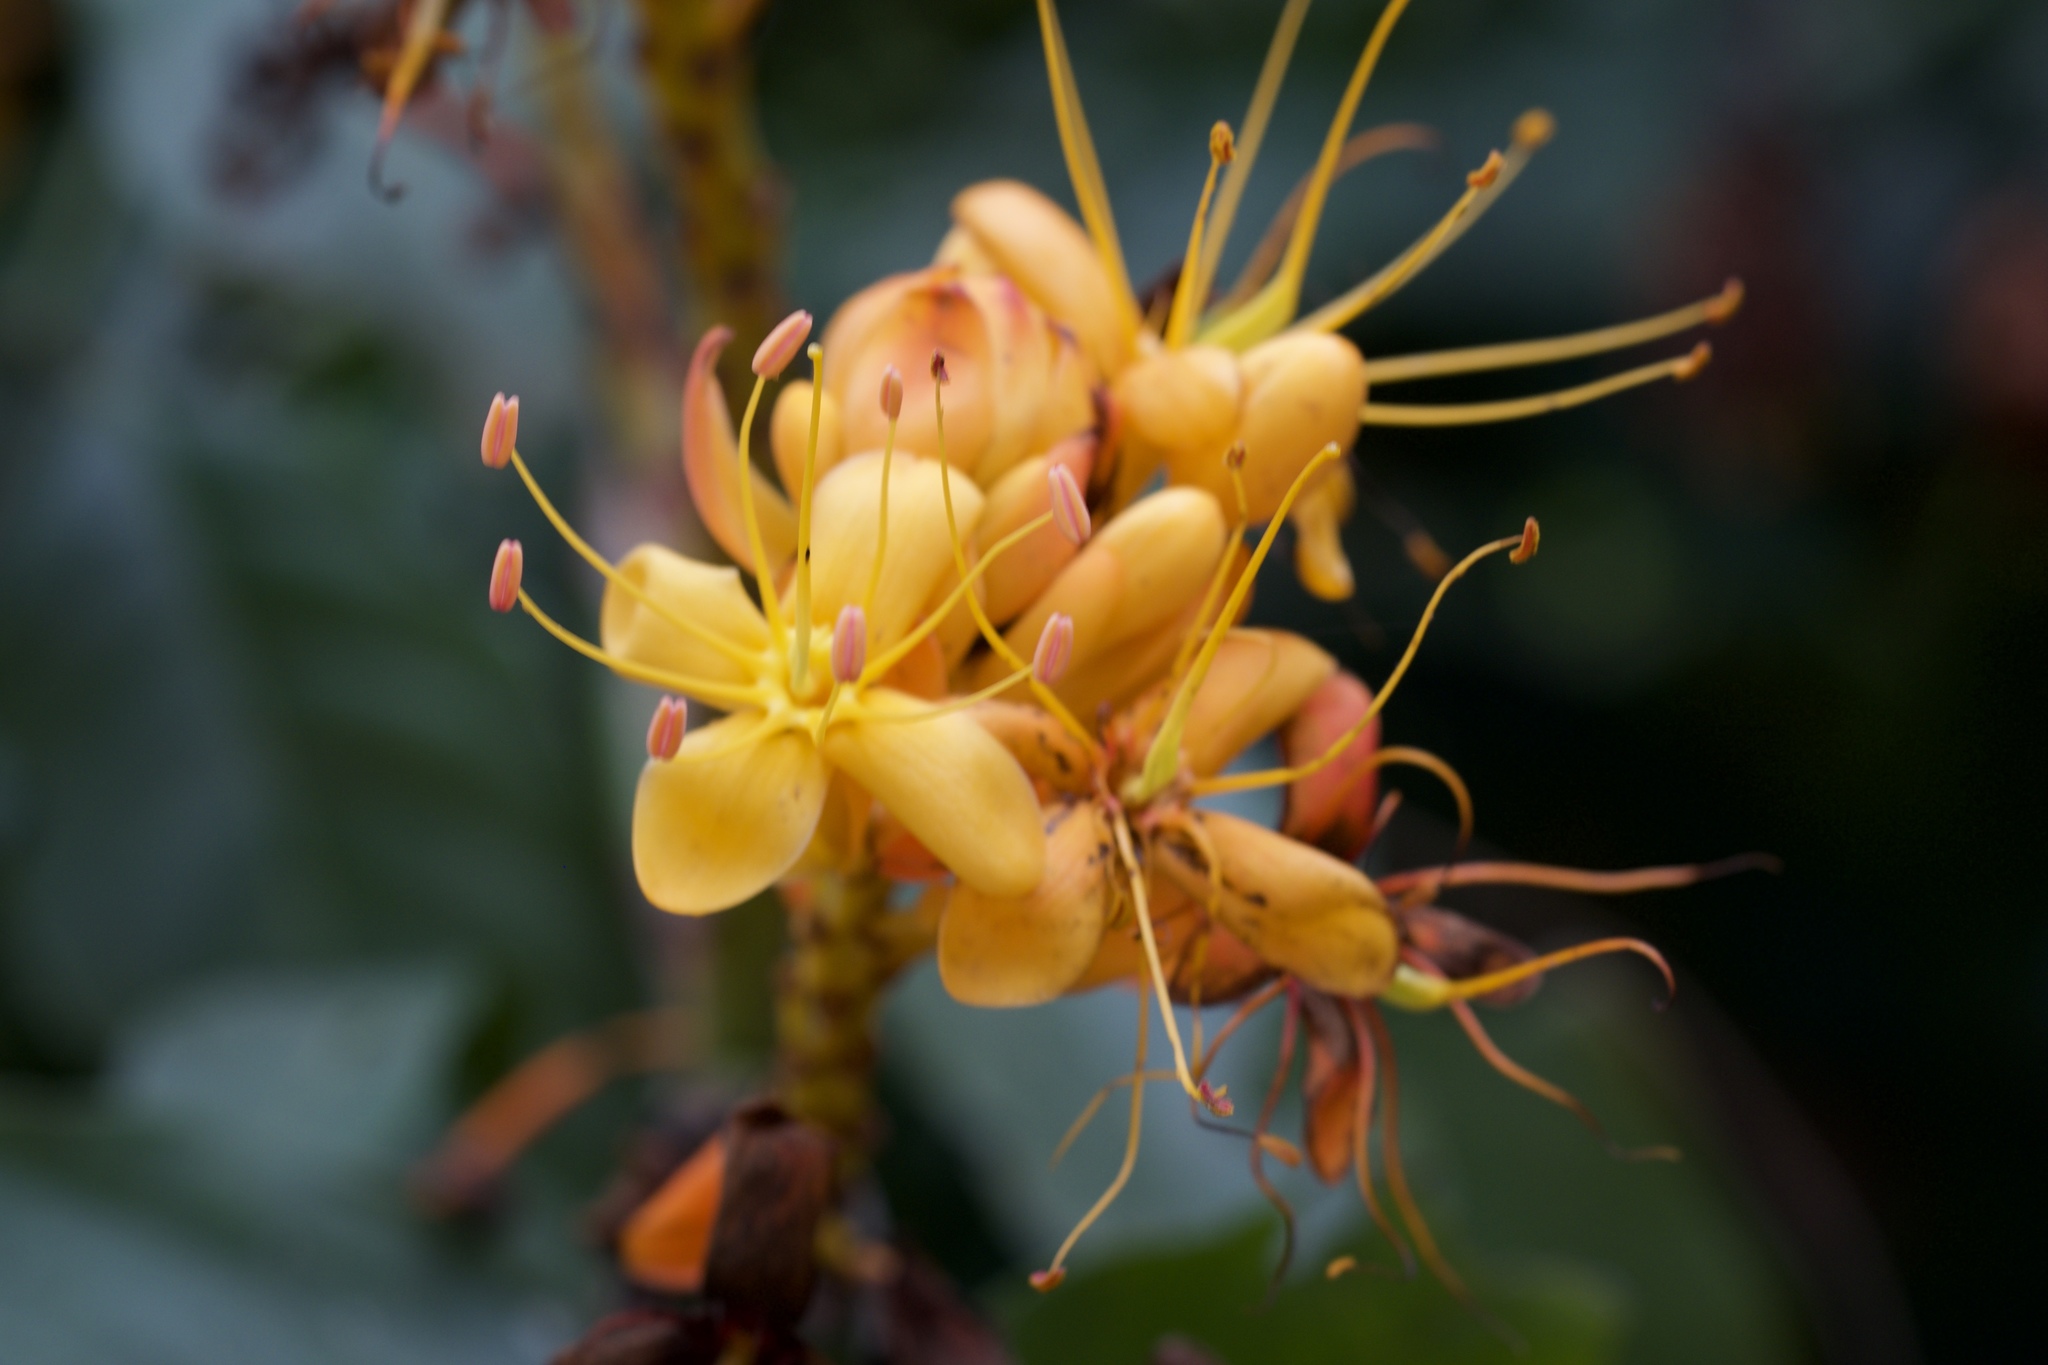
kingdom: Plantae
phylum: Tracheophyta
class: Magnoliopsida
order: Fabales
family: Fabaceae
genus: Saraca
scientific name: Saraca dives
